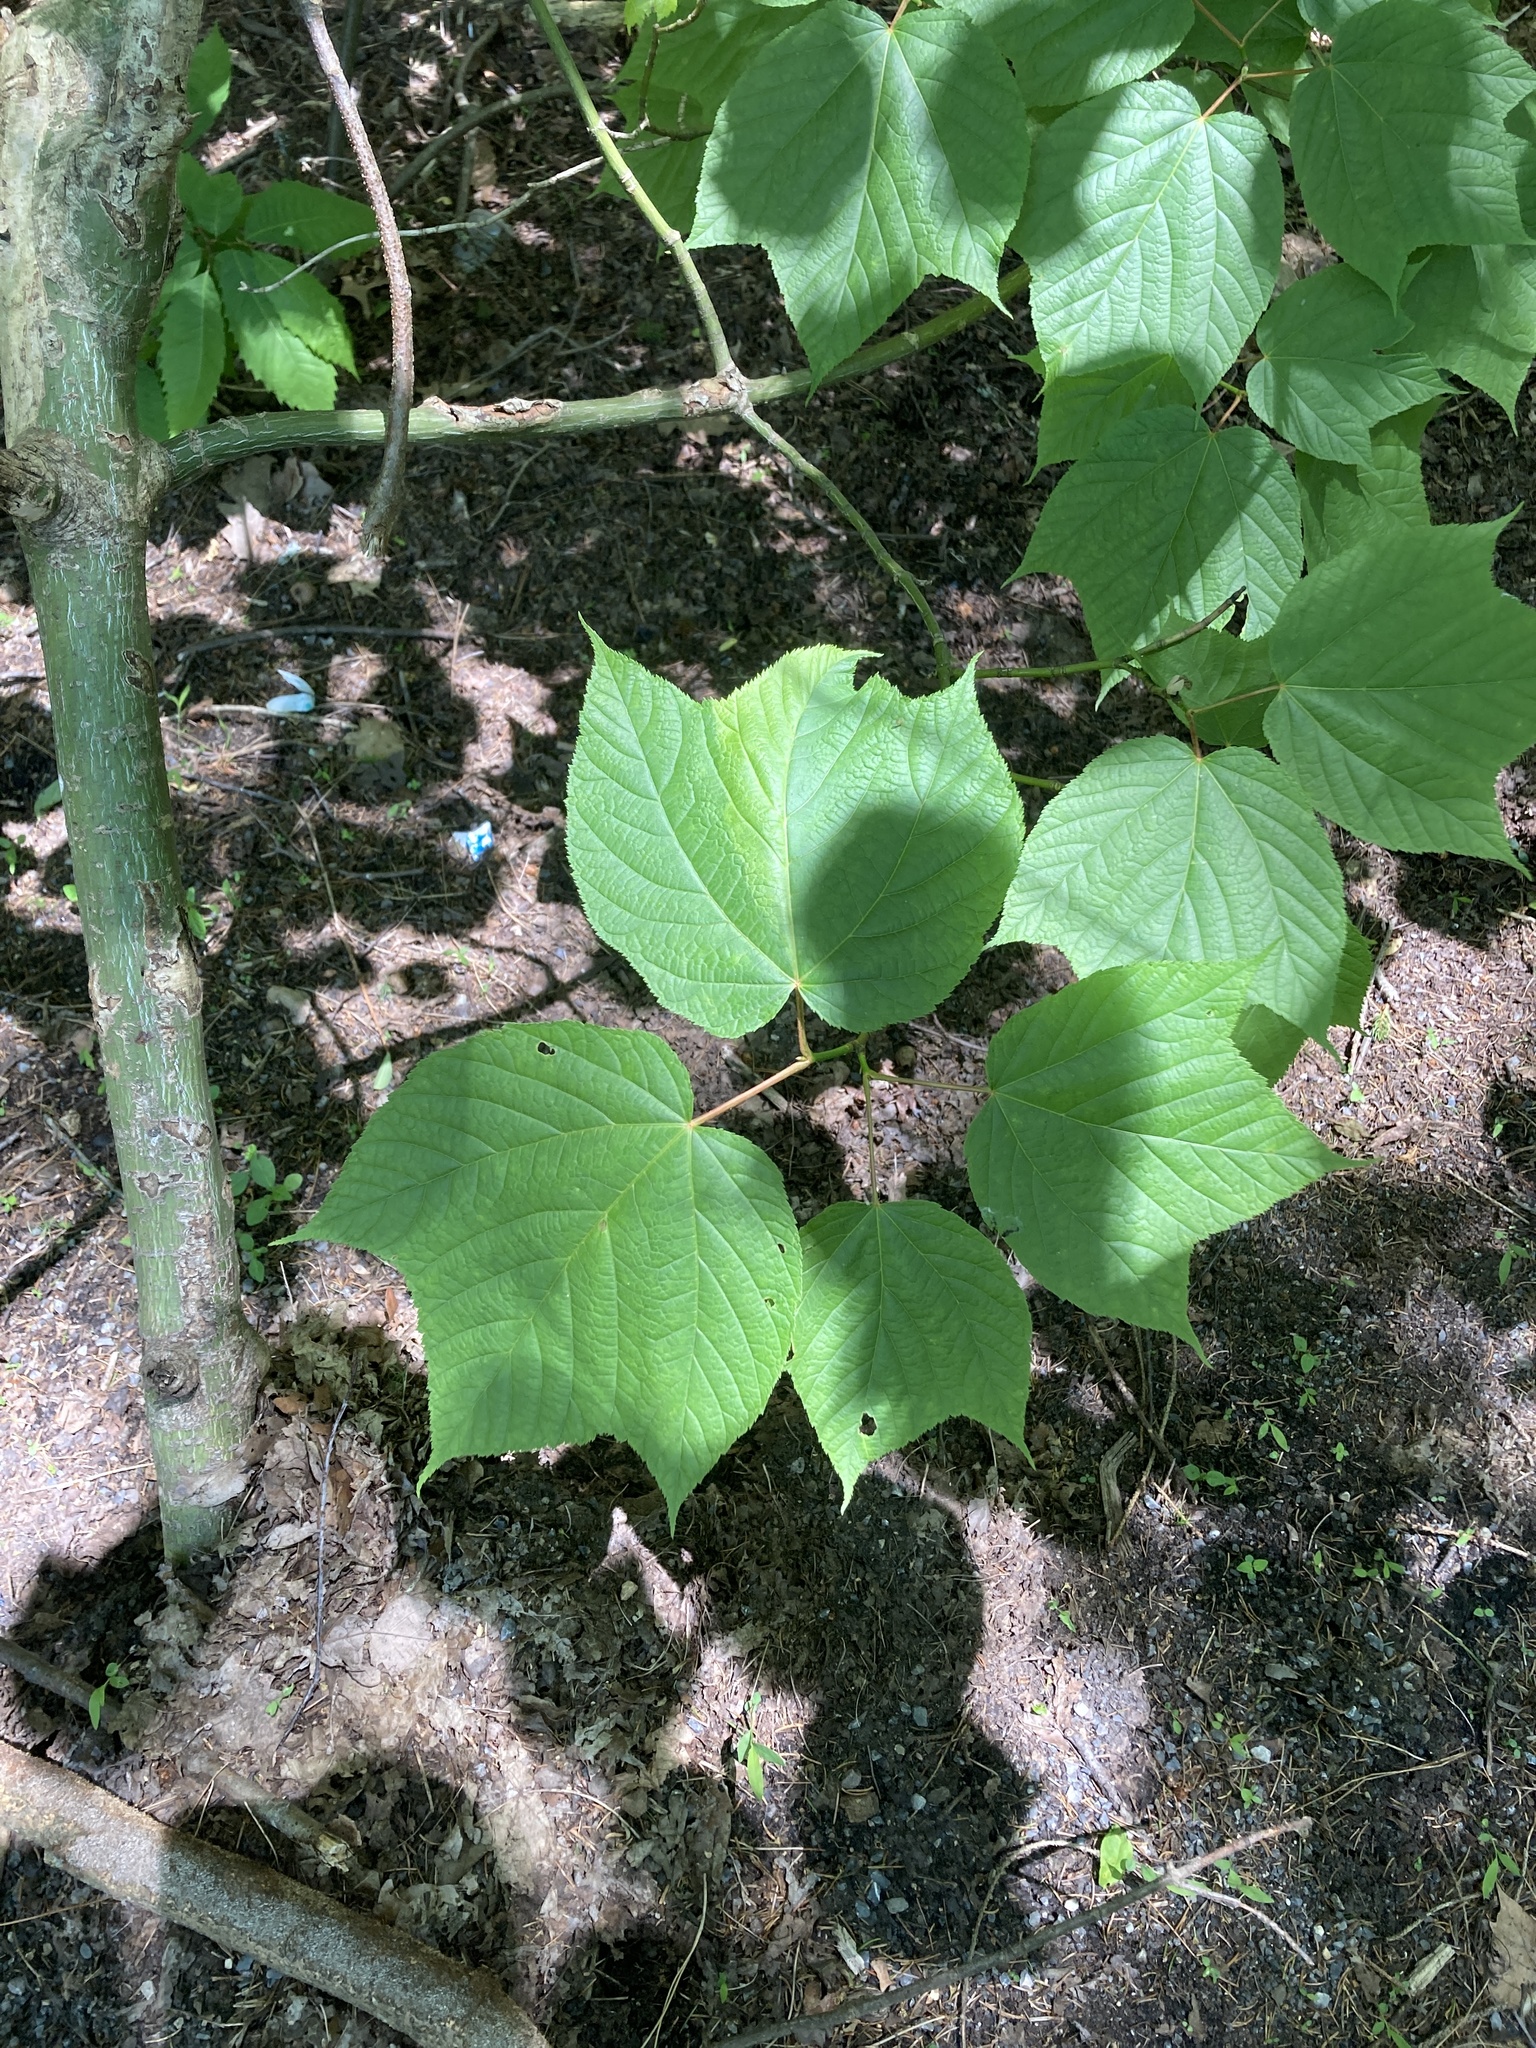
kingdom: Plantae
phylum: Tracheophyta
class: Magnoliopsida
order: Sapindales
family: Sapindaceae
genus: Acer
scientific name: Acer pensylvanicum
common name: Moosewood
